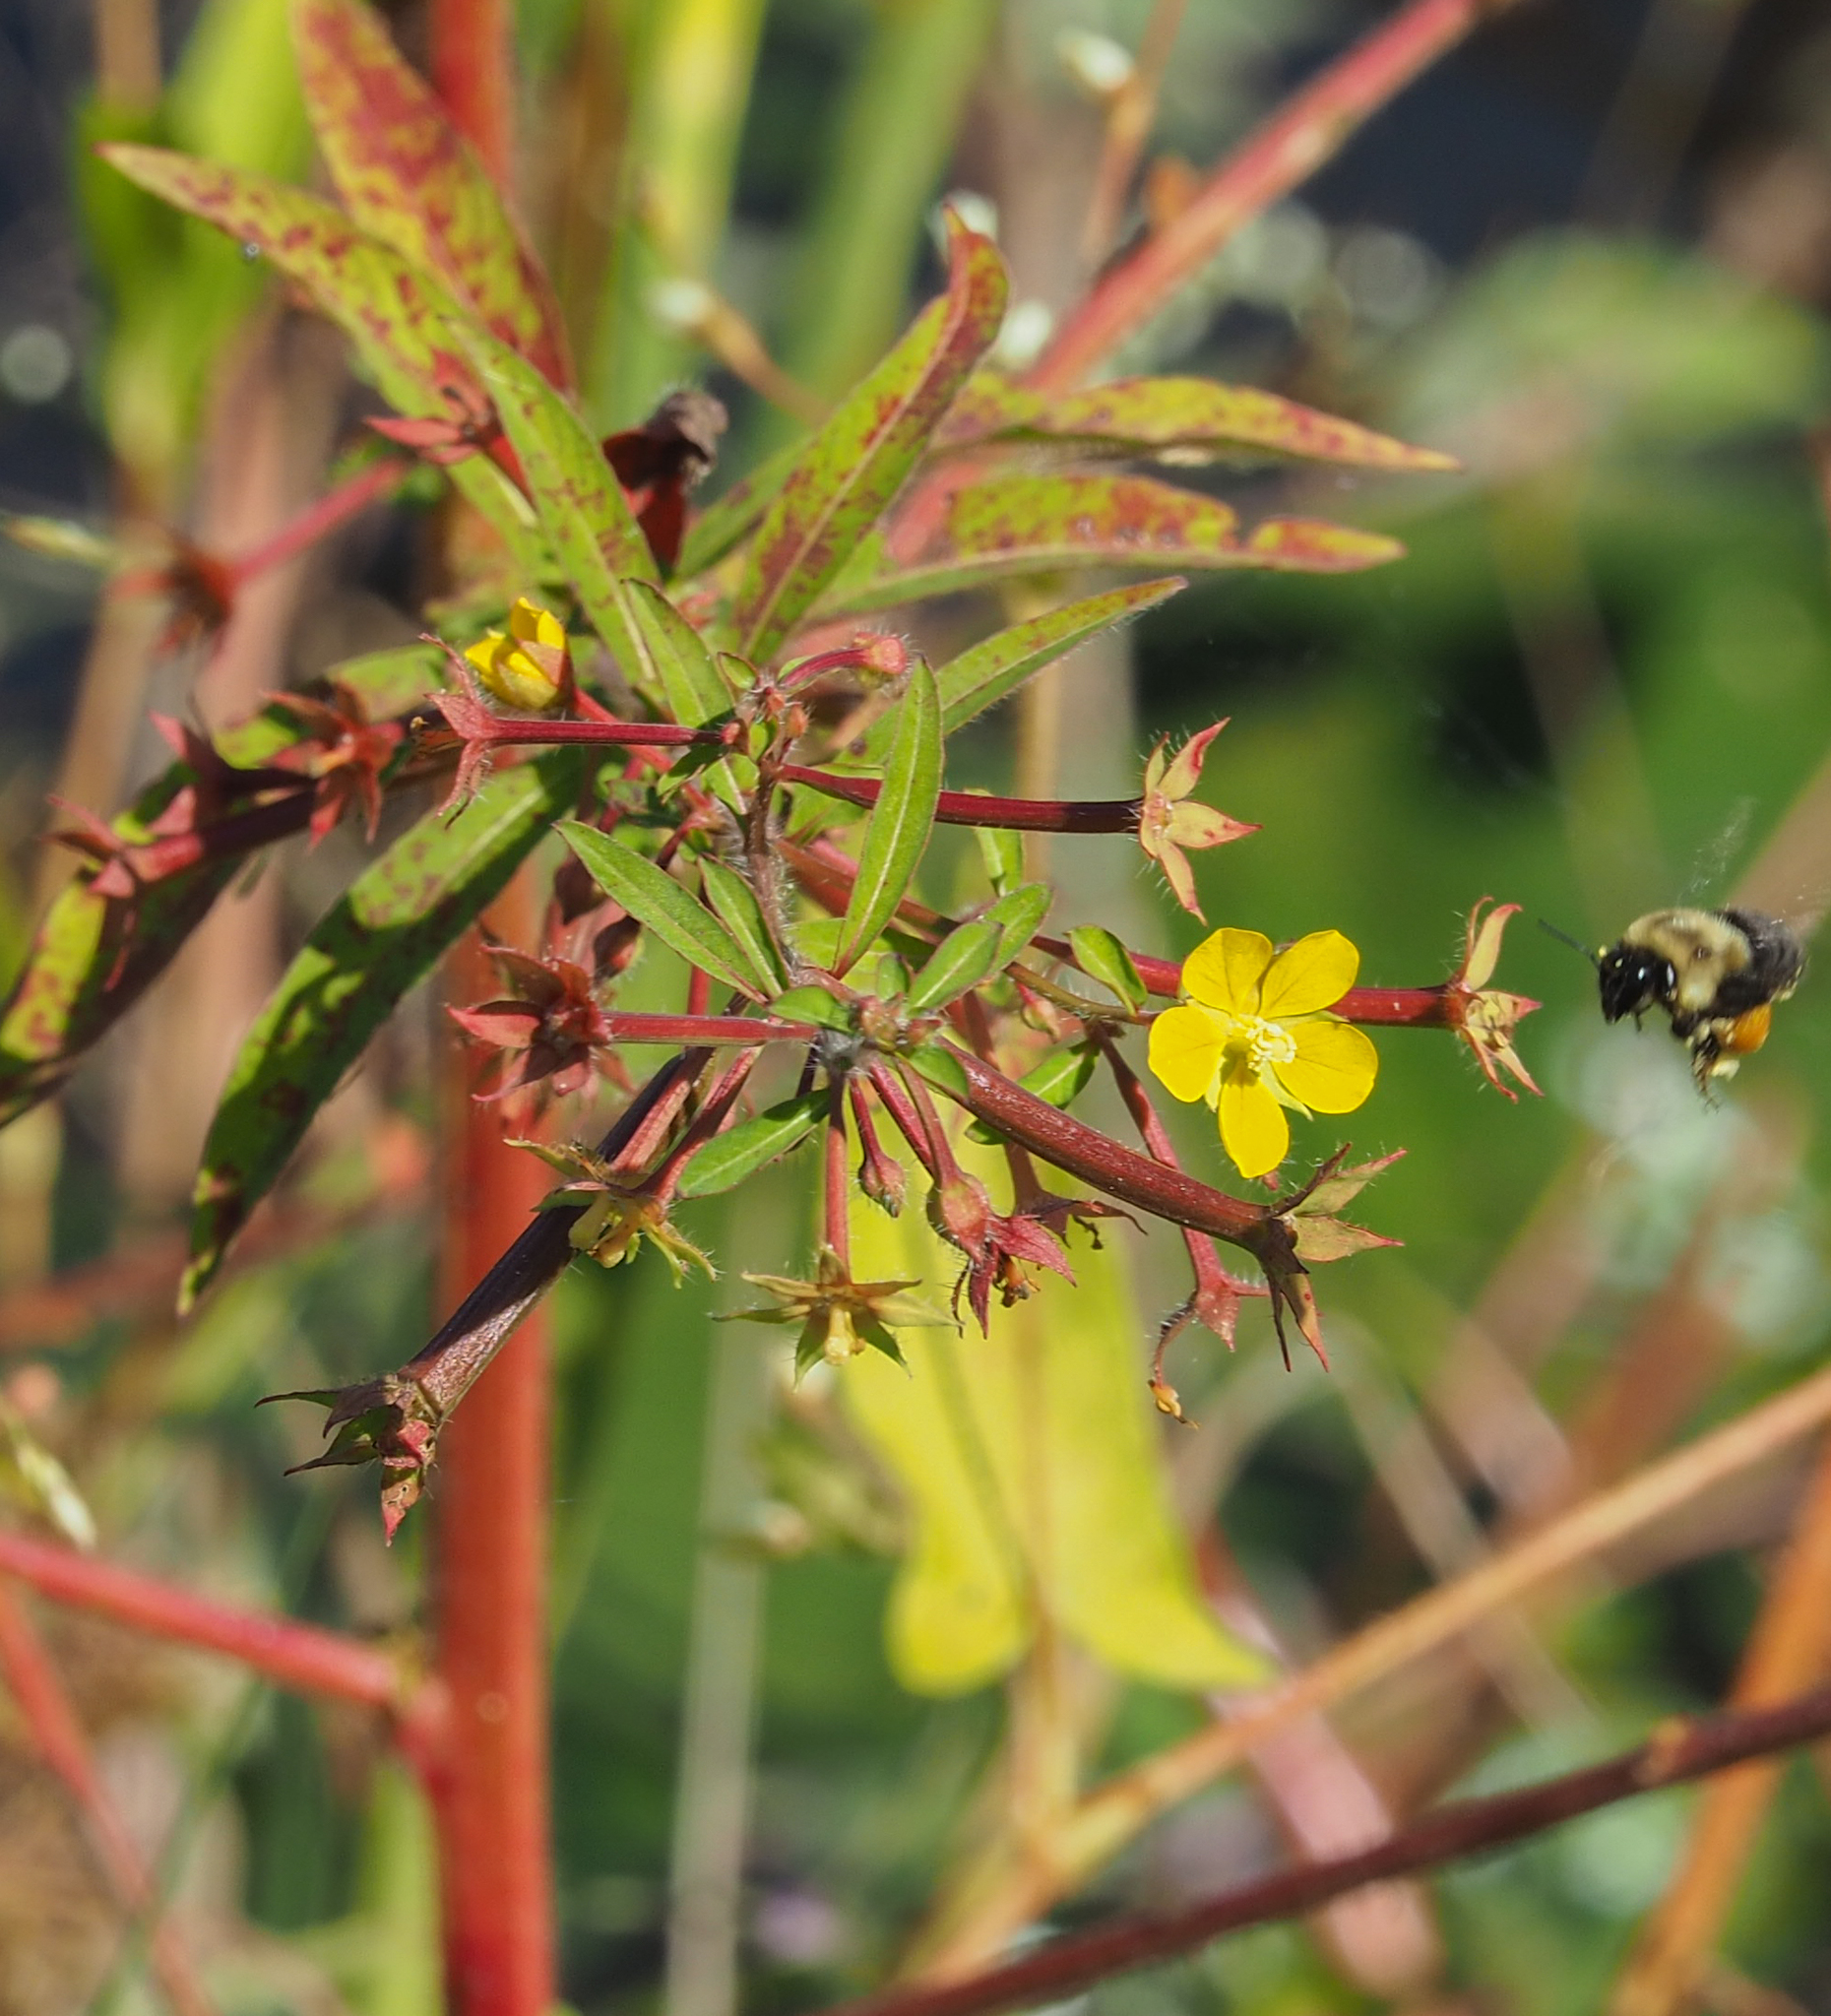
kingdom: Plantae
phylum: Tracheophyta
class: Magnoliopsida
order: Myrtales
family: Onagraceae
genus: Ludwigia
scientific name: Ludwigia leptocarpa
